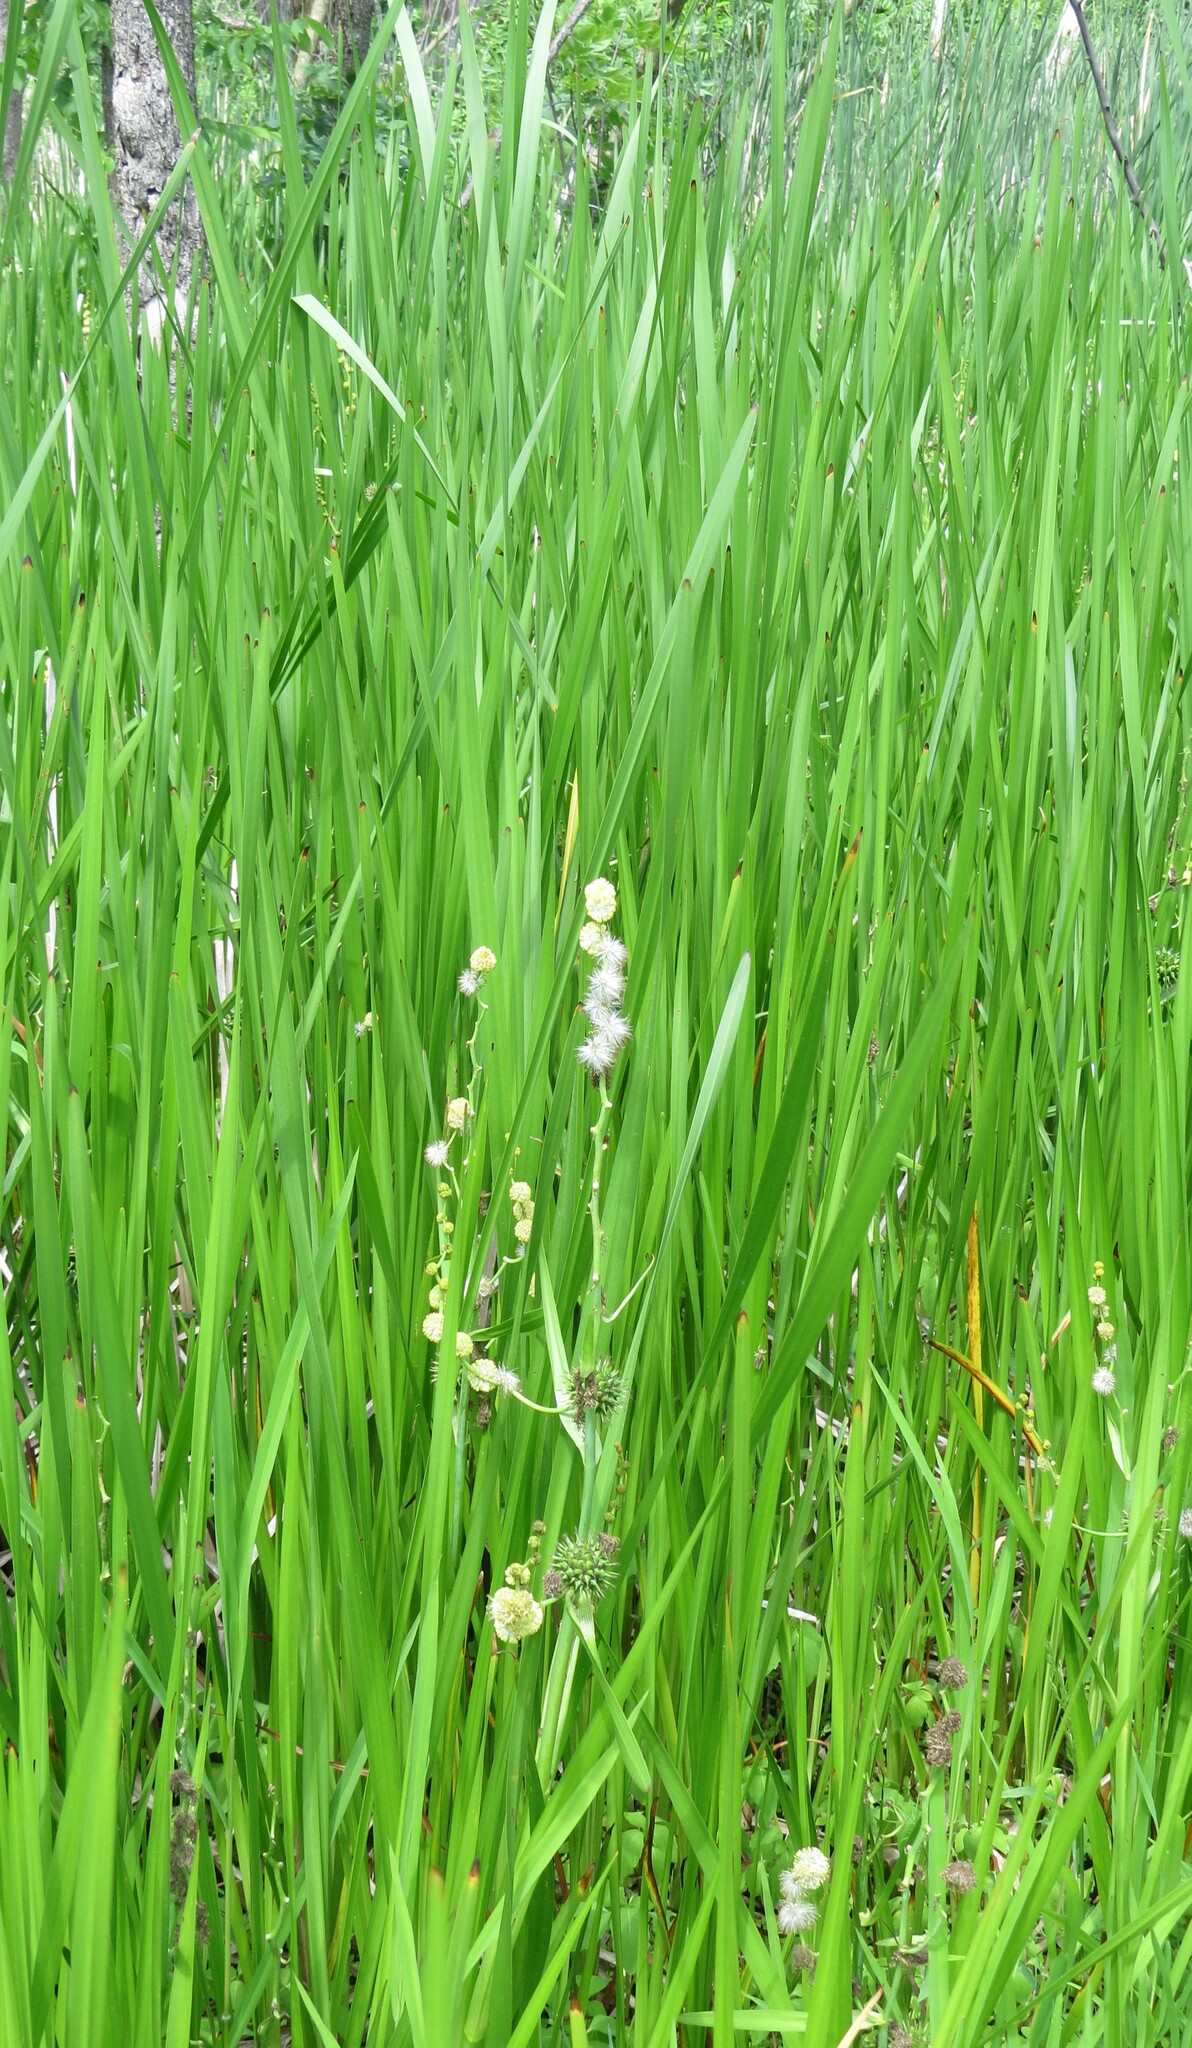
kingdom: Plantae
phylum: Tracheophyta
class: Liliopsida
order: Poales
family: Typhaceae
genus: Sparganium
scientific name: Sparganium eurycarpum
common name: Broad-fruited burreed
